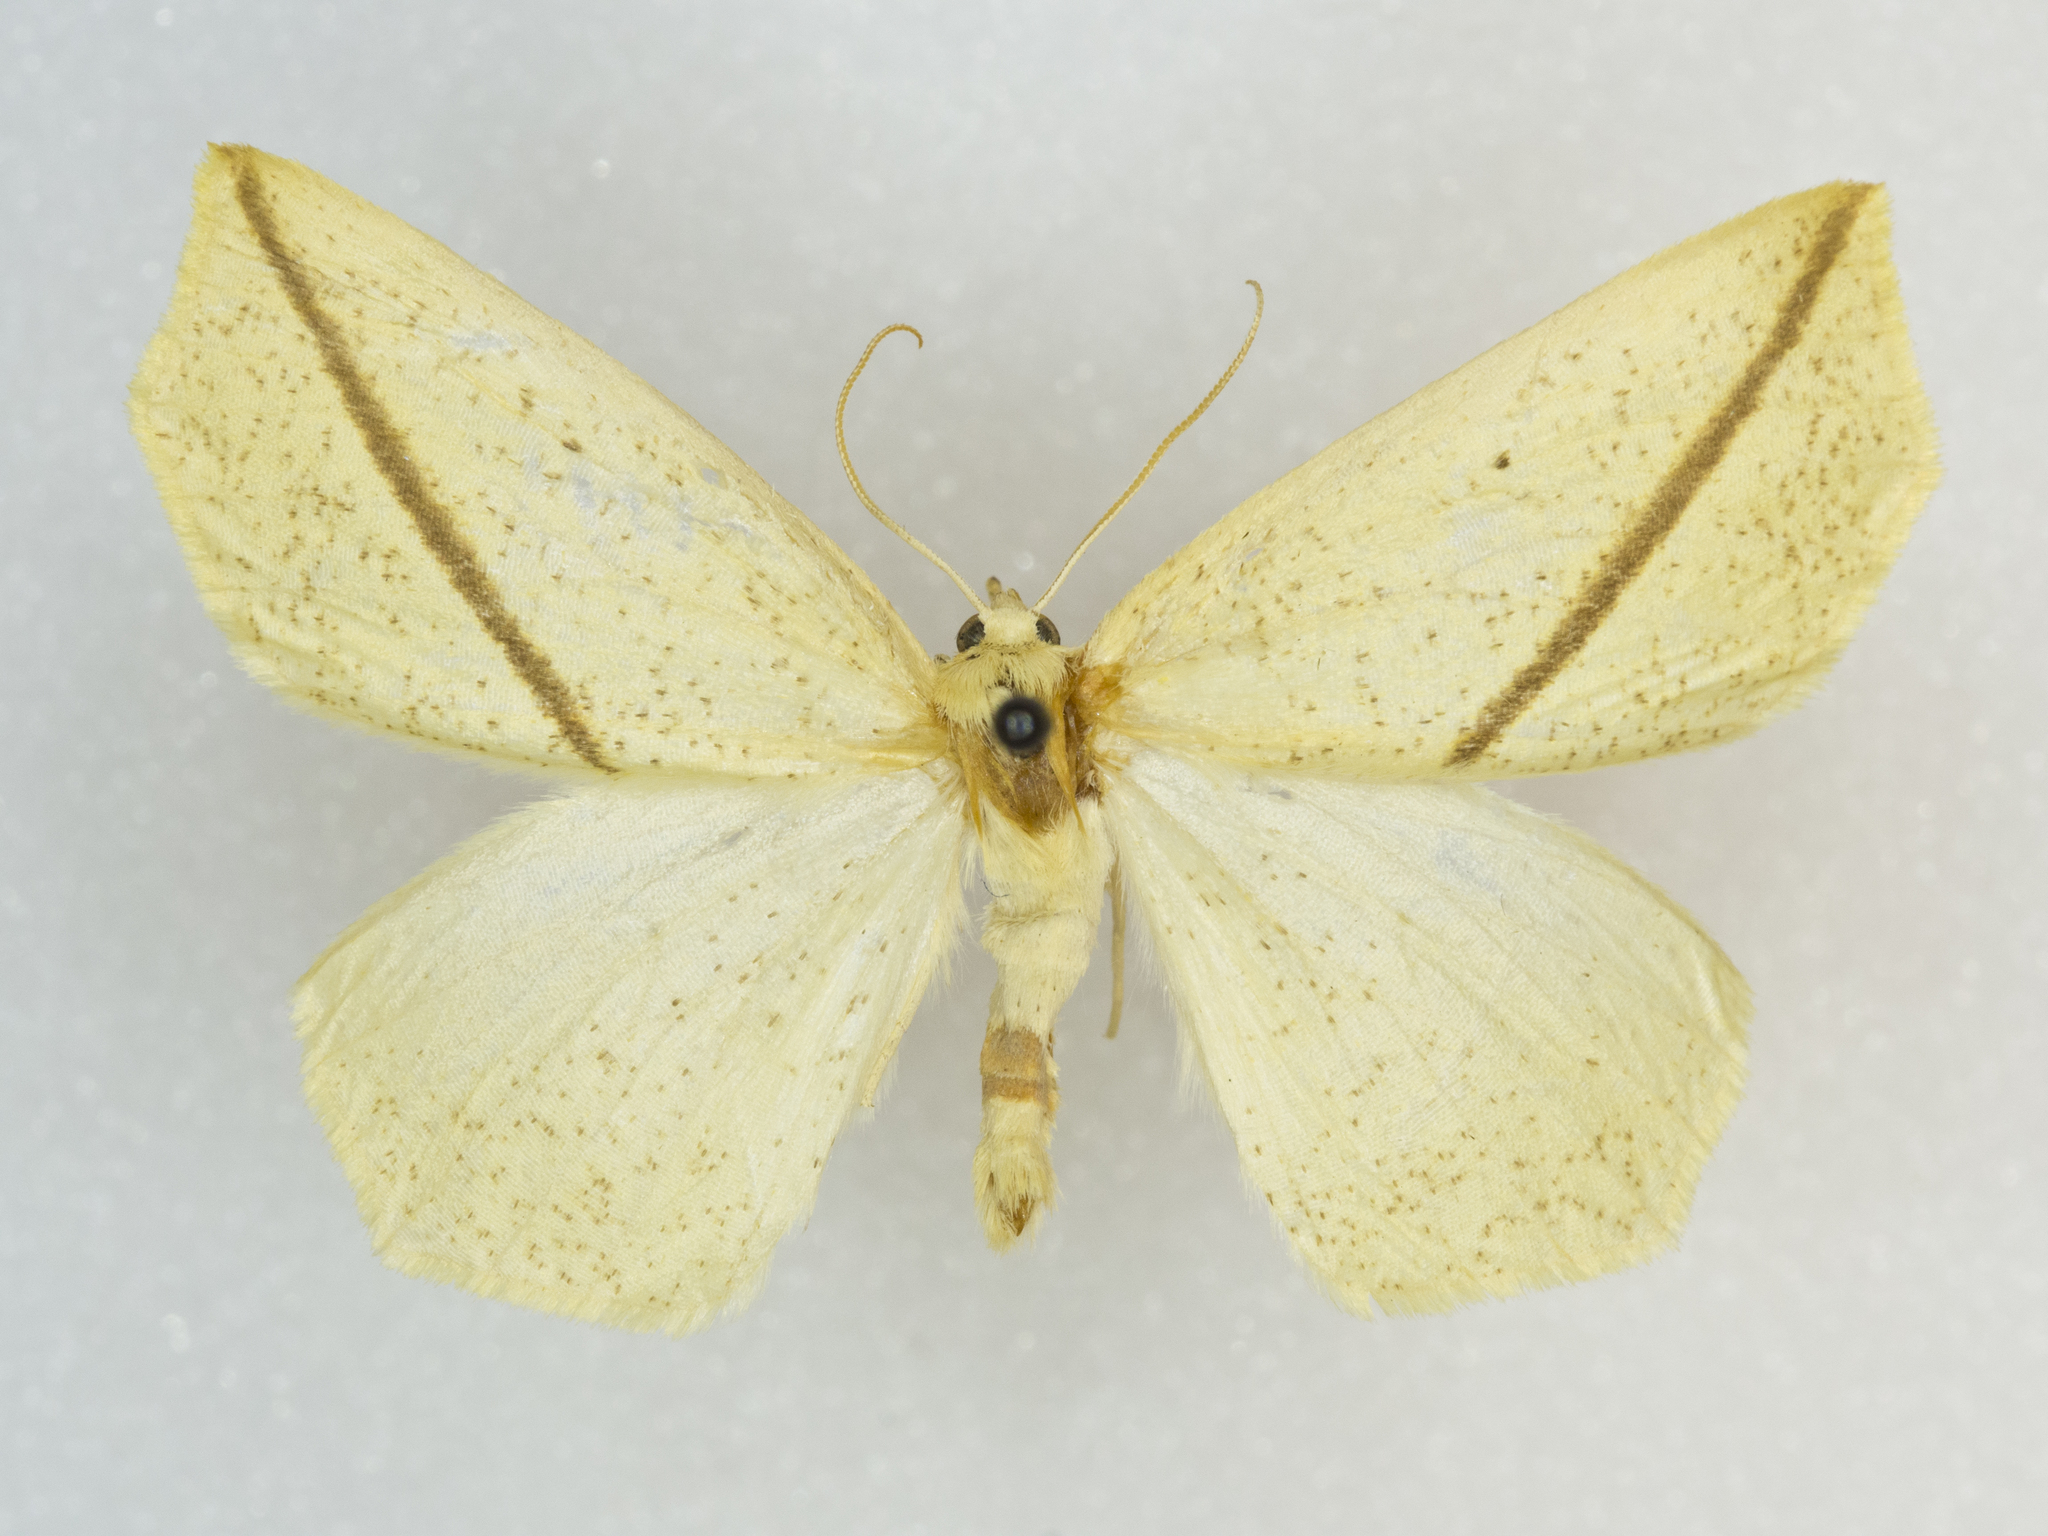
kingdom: Animalia
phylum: Arthropoda
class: Insecta
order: Lepidoptera
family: Geometridae
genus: Tetracis
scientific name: Tetracis crocallata
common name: Yellow slant-line
